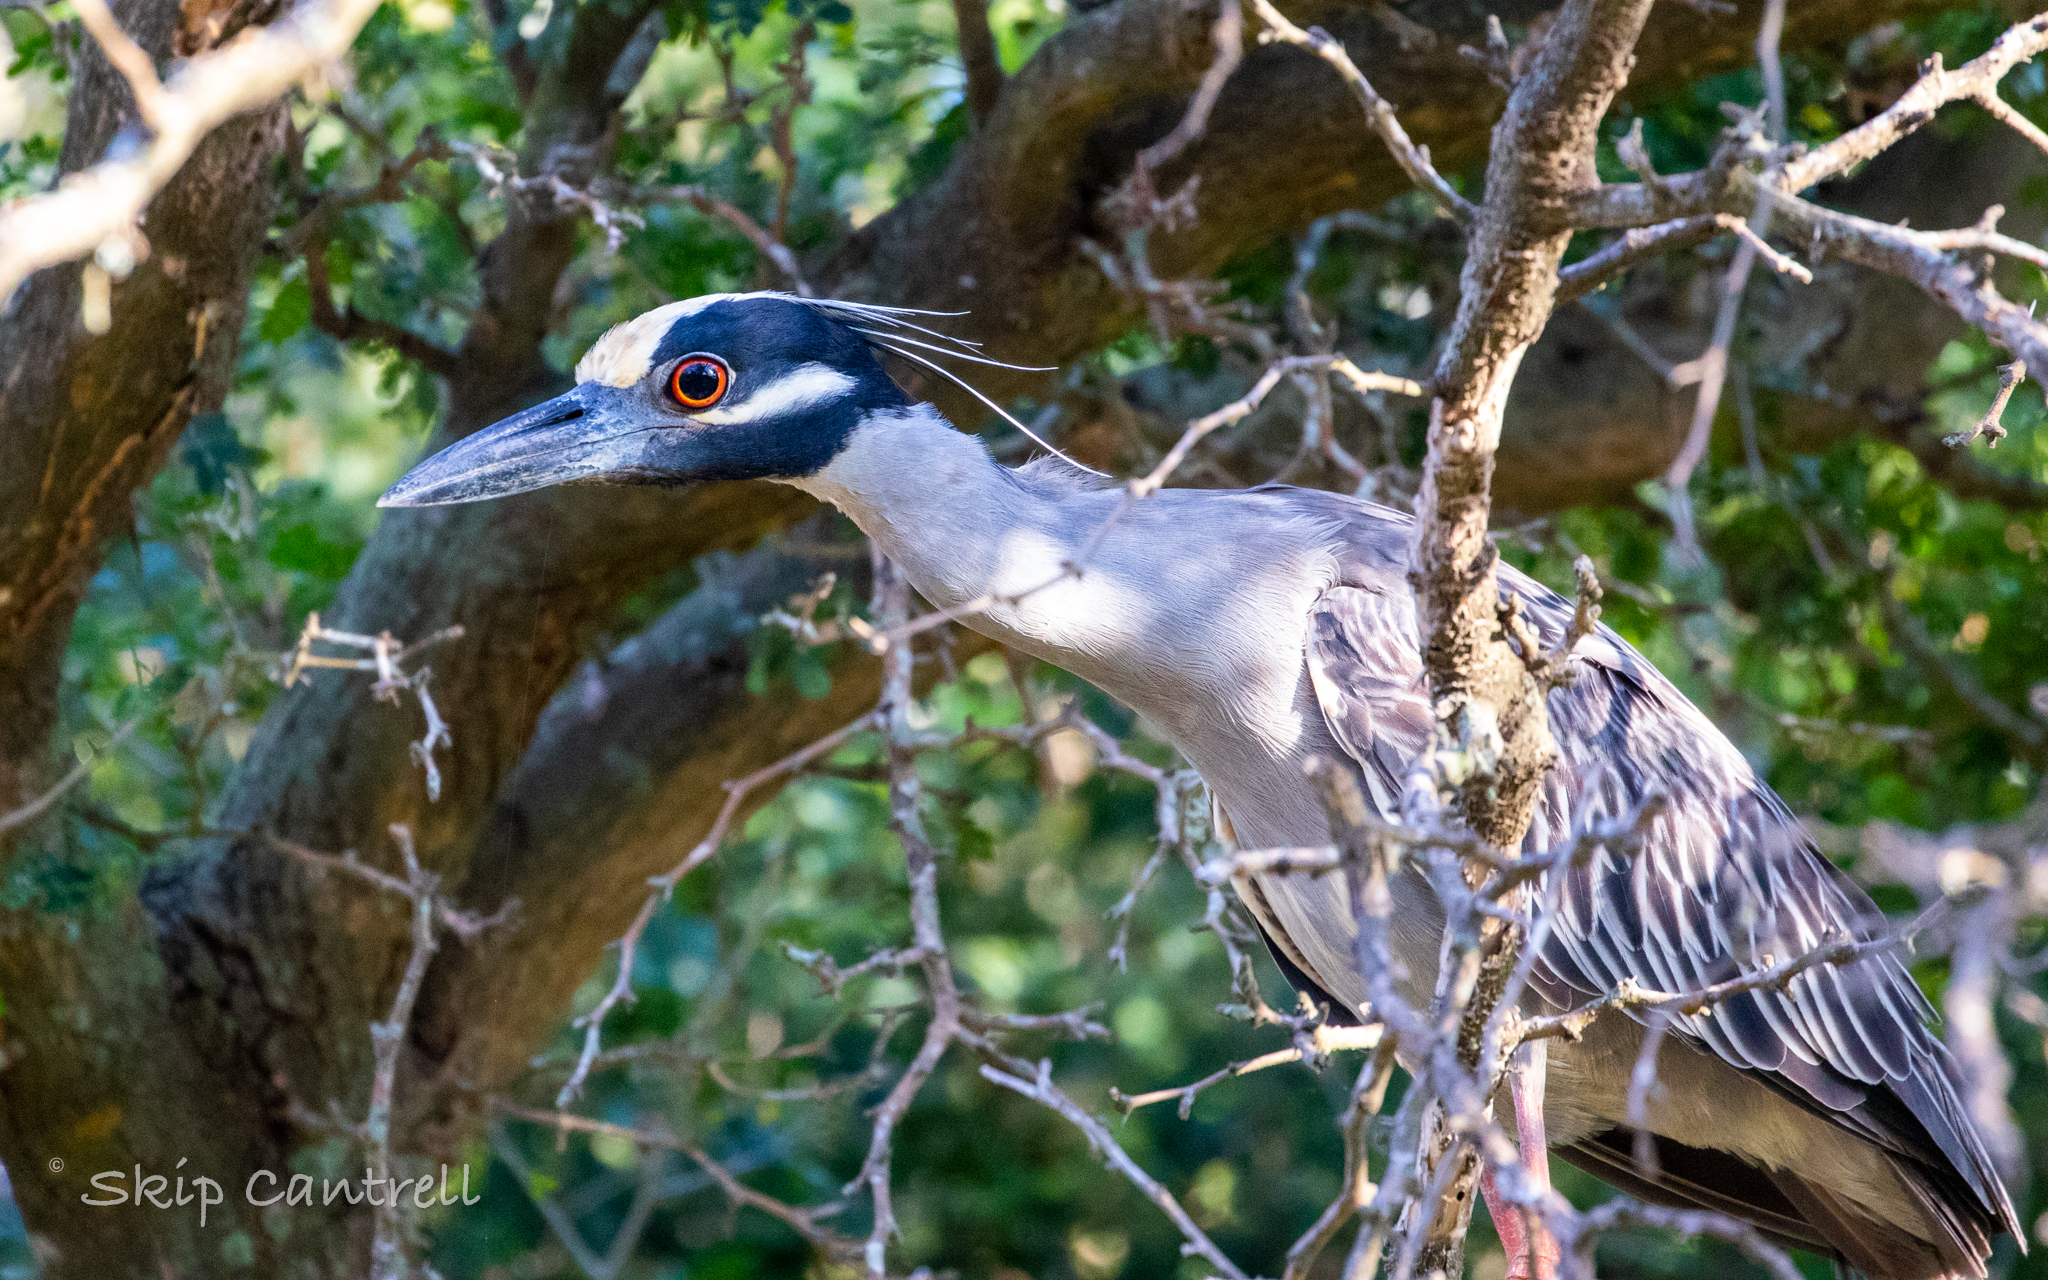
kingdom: Animalia
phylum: Chordata
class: Aves
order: Pelecaniformes
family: Ardeidae
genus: Nyctanassa
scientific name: Nyctanassa violacea
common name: Yellow-crowned night heron
